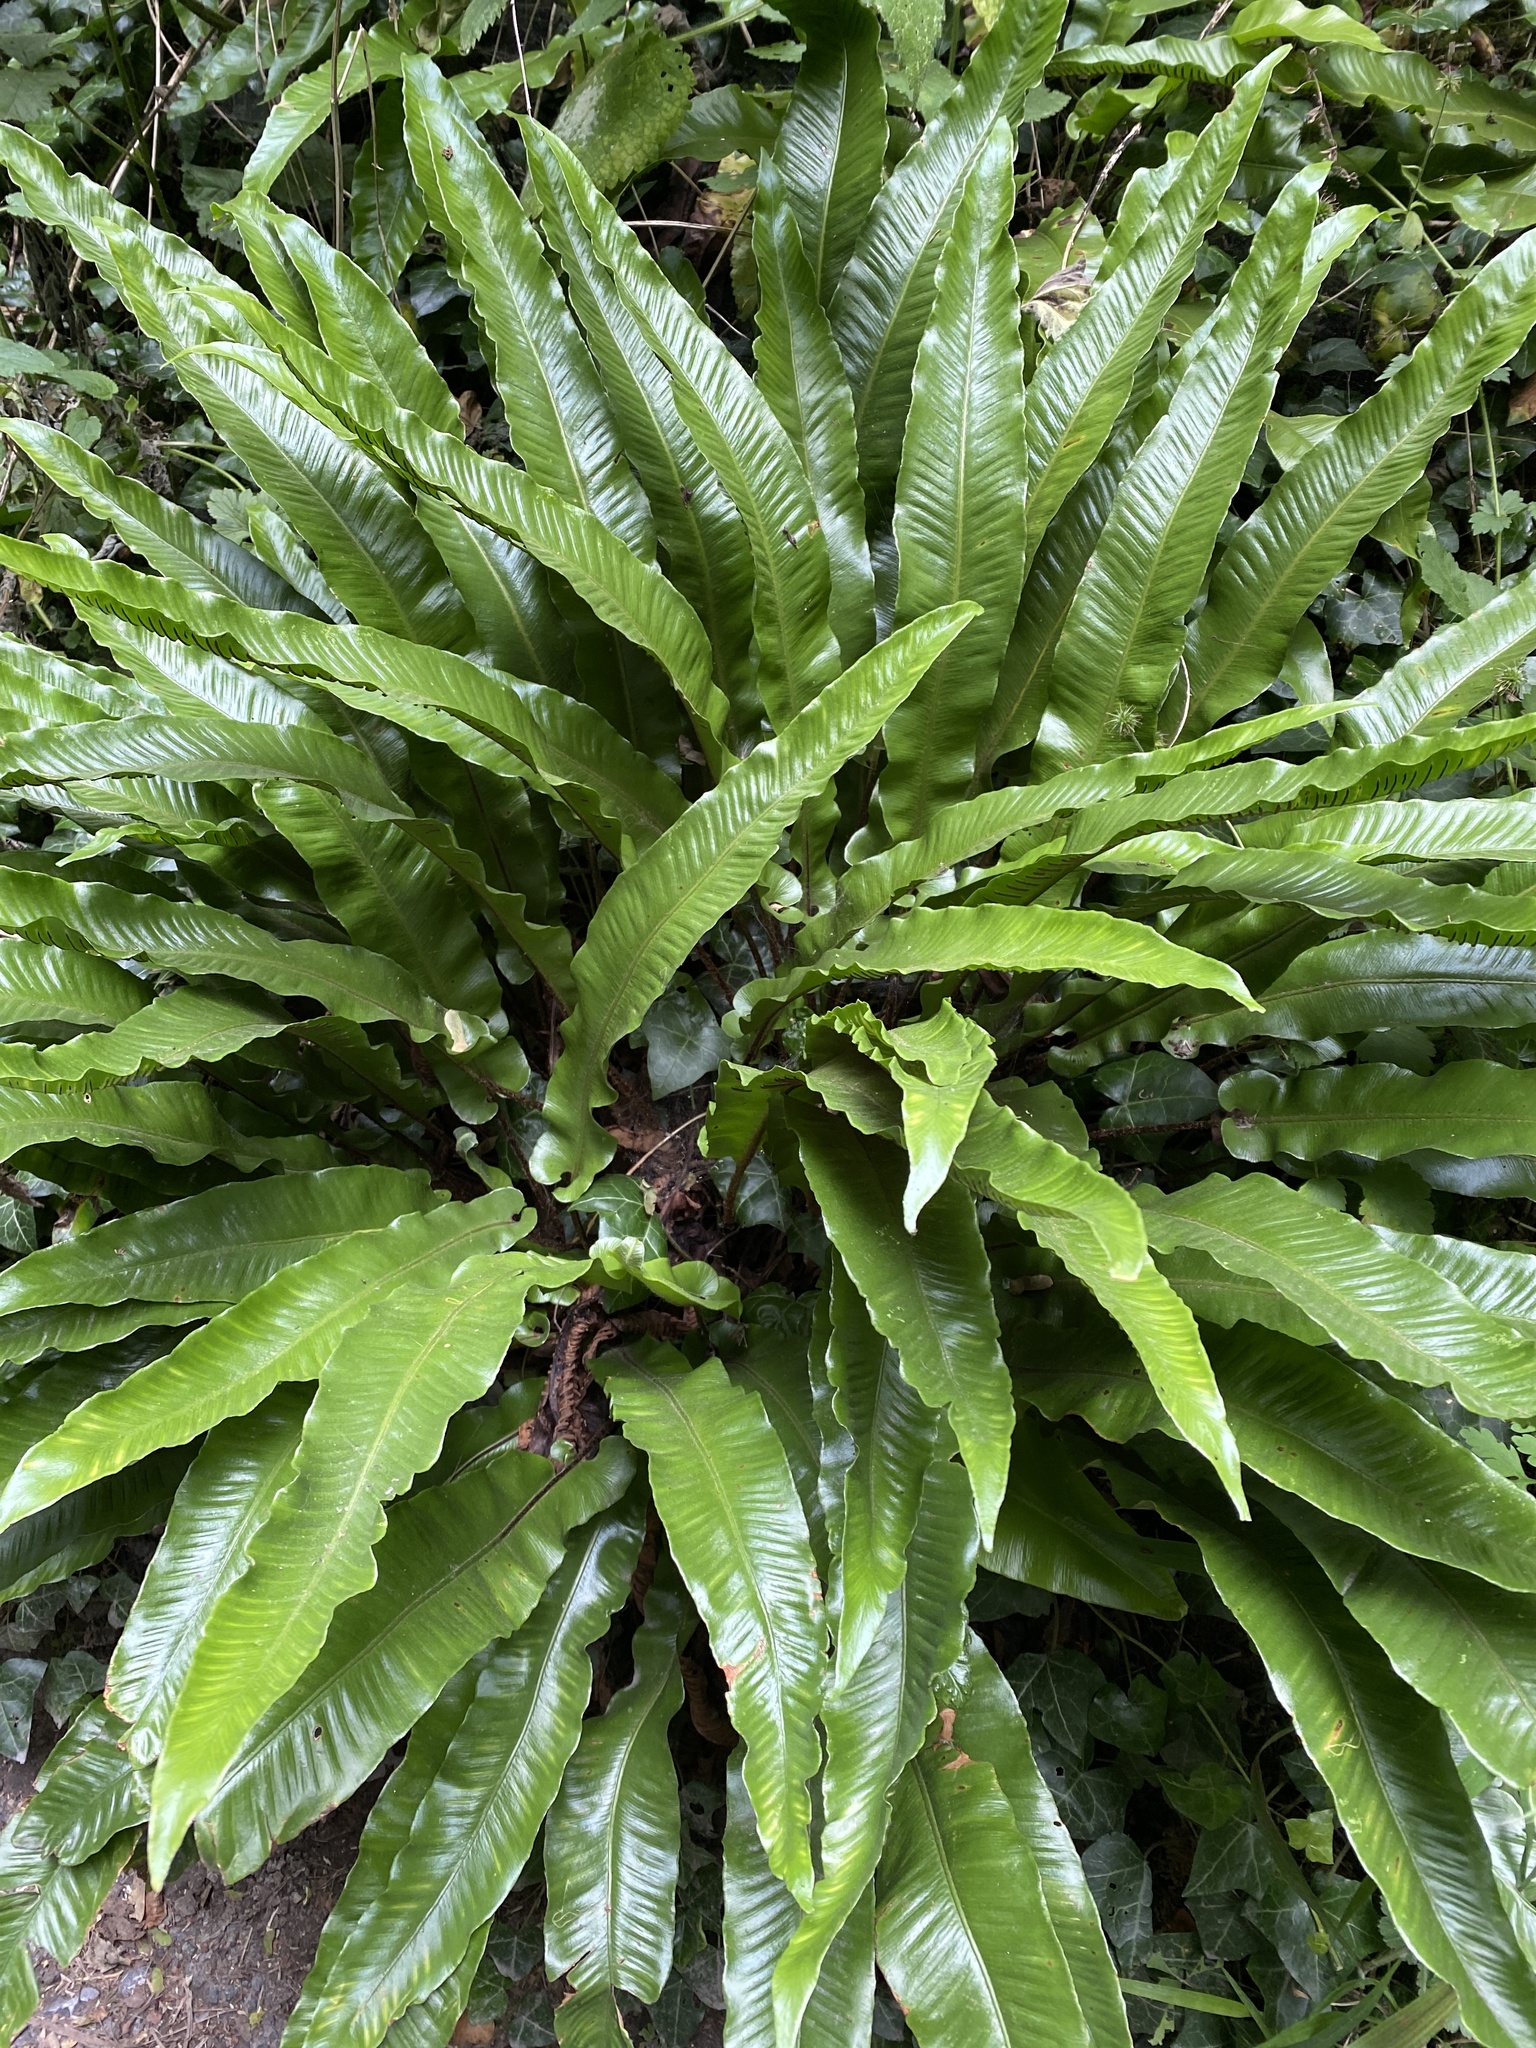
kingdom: Plantae
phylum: Tracheophyta
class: Polypodiopsida
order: Polypodiales
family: Aspleniaceae
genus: Asplenium
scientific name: Asplenium scolopendrium
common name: Hart's-tongue fern
